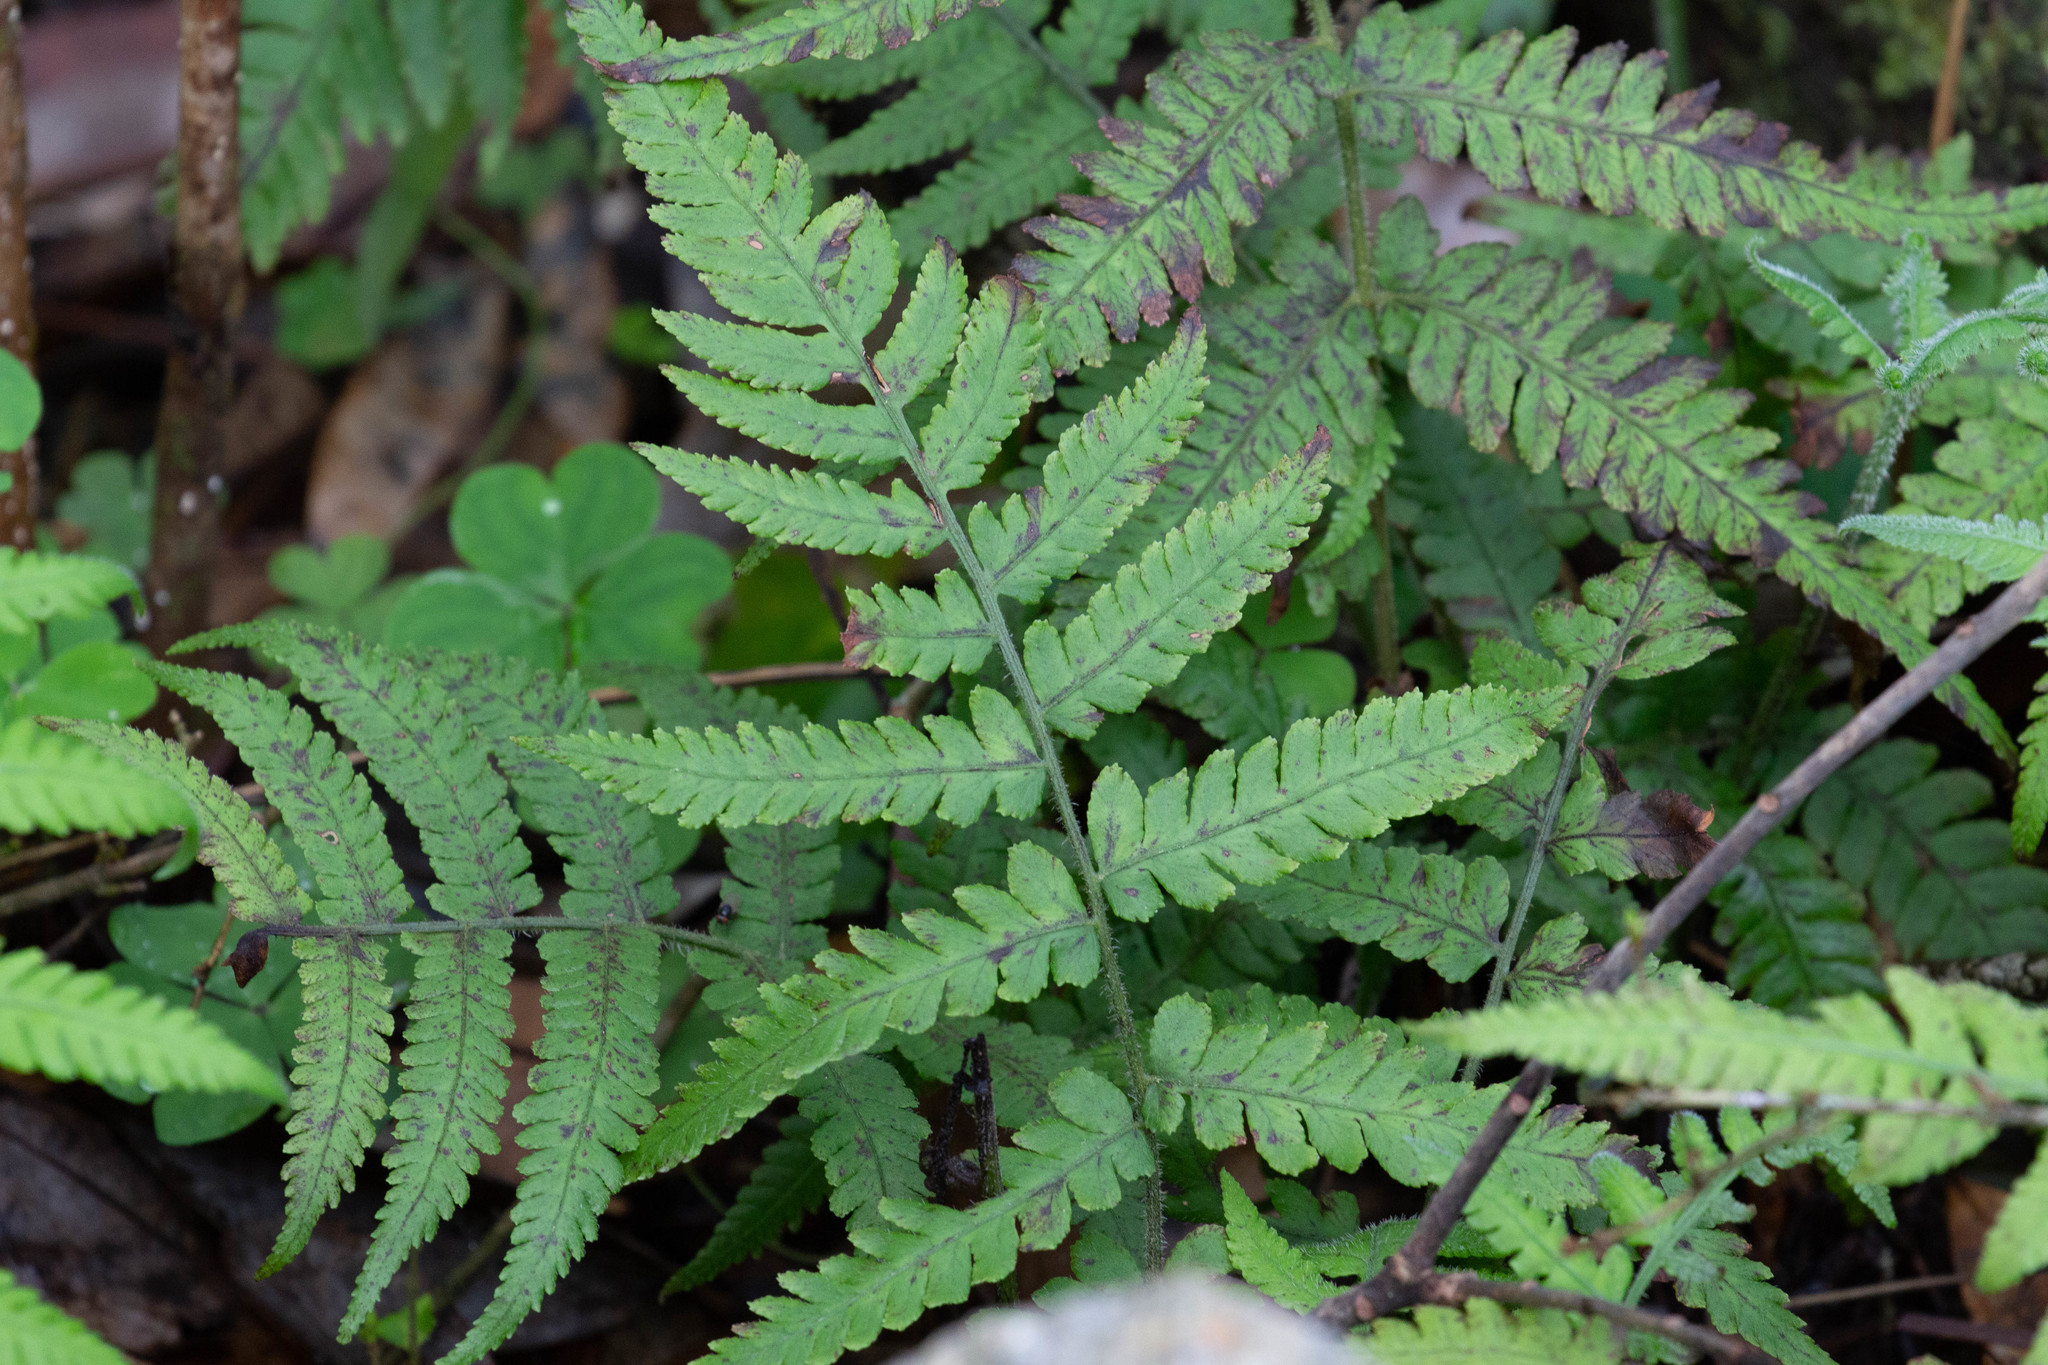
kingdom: Plantae
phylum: Tracheophyta
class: Polypodiopsida
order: Polypodiales
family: Athyriaceae
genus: Deparia
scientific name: Deparia petersenii
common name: Japanese false spleenwort
